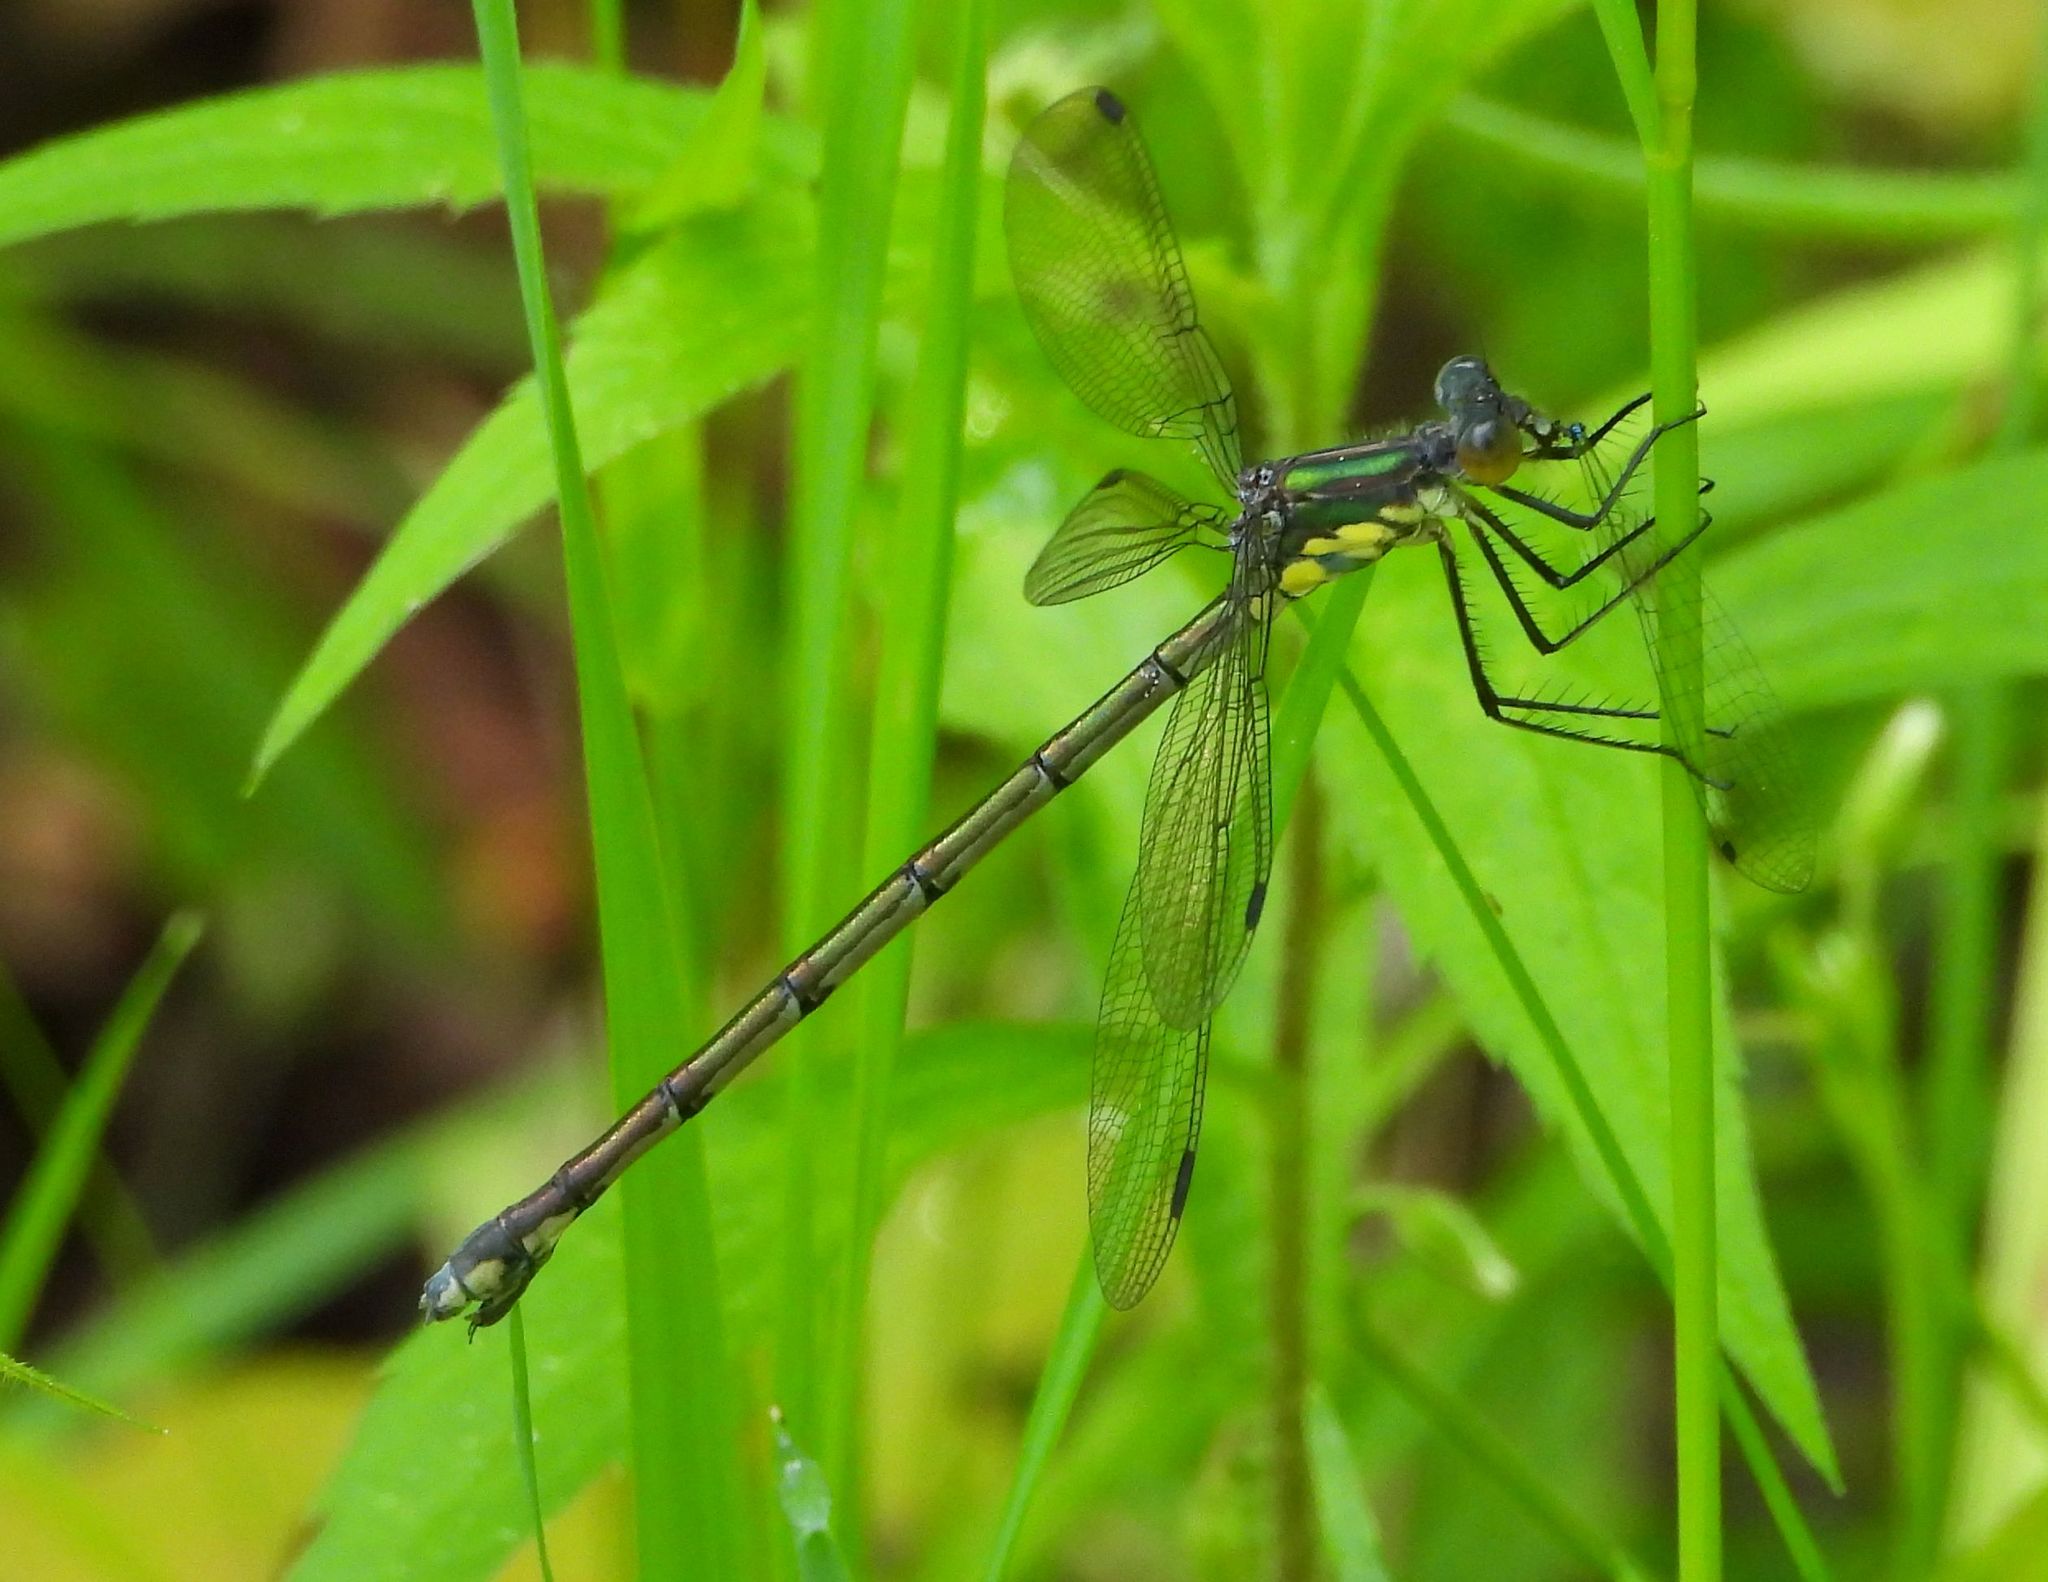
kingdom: Animalia
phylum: Arthropoda
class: Insecta
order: Odonata
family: Lestidae
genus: Lestes
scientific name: Lestes eurinus
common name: Amber-winged spreadwing
